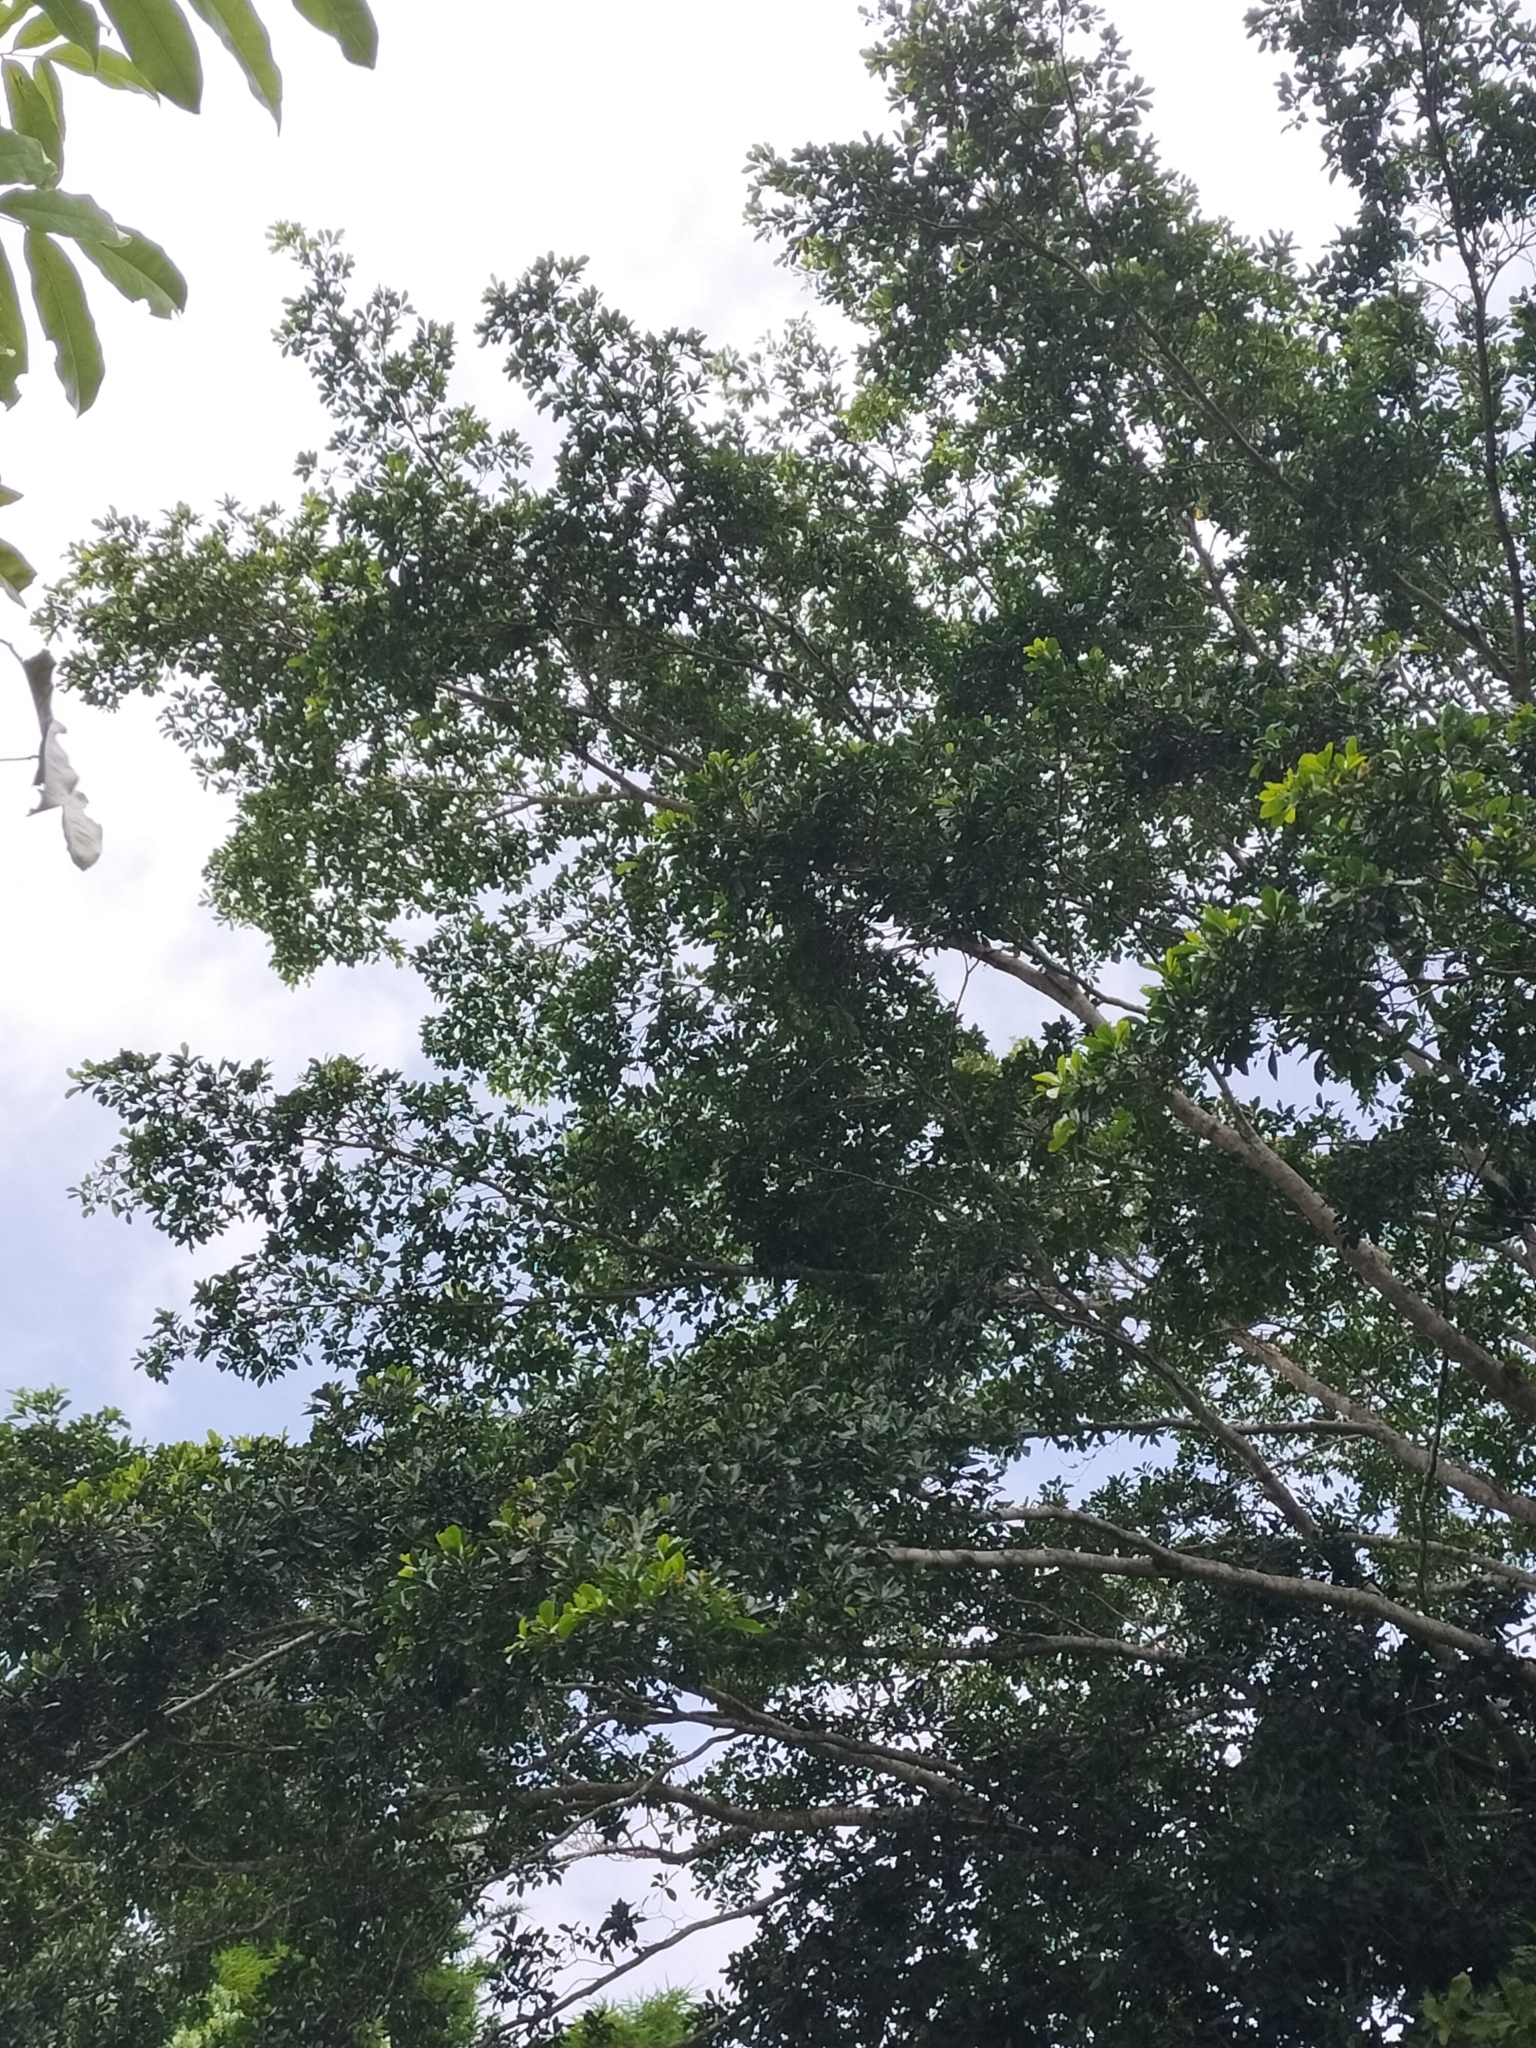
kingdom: Plantae
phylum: Tracheophyta
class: Magnoliopsida
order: Myrtales
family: Combretaceae
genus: Terminalia
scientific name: Terminalia microcarpa
